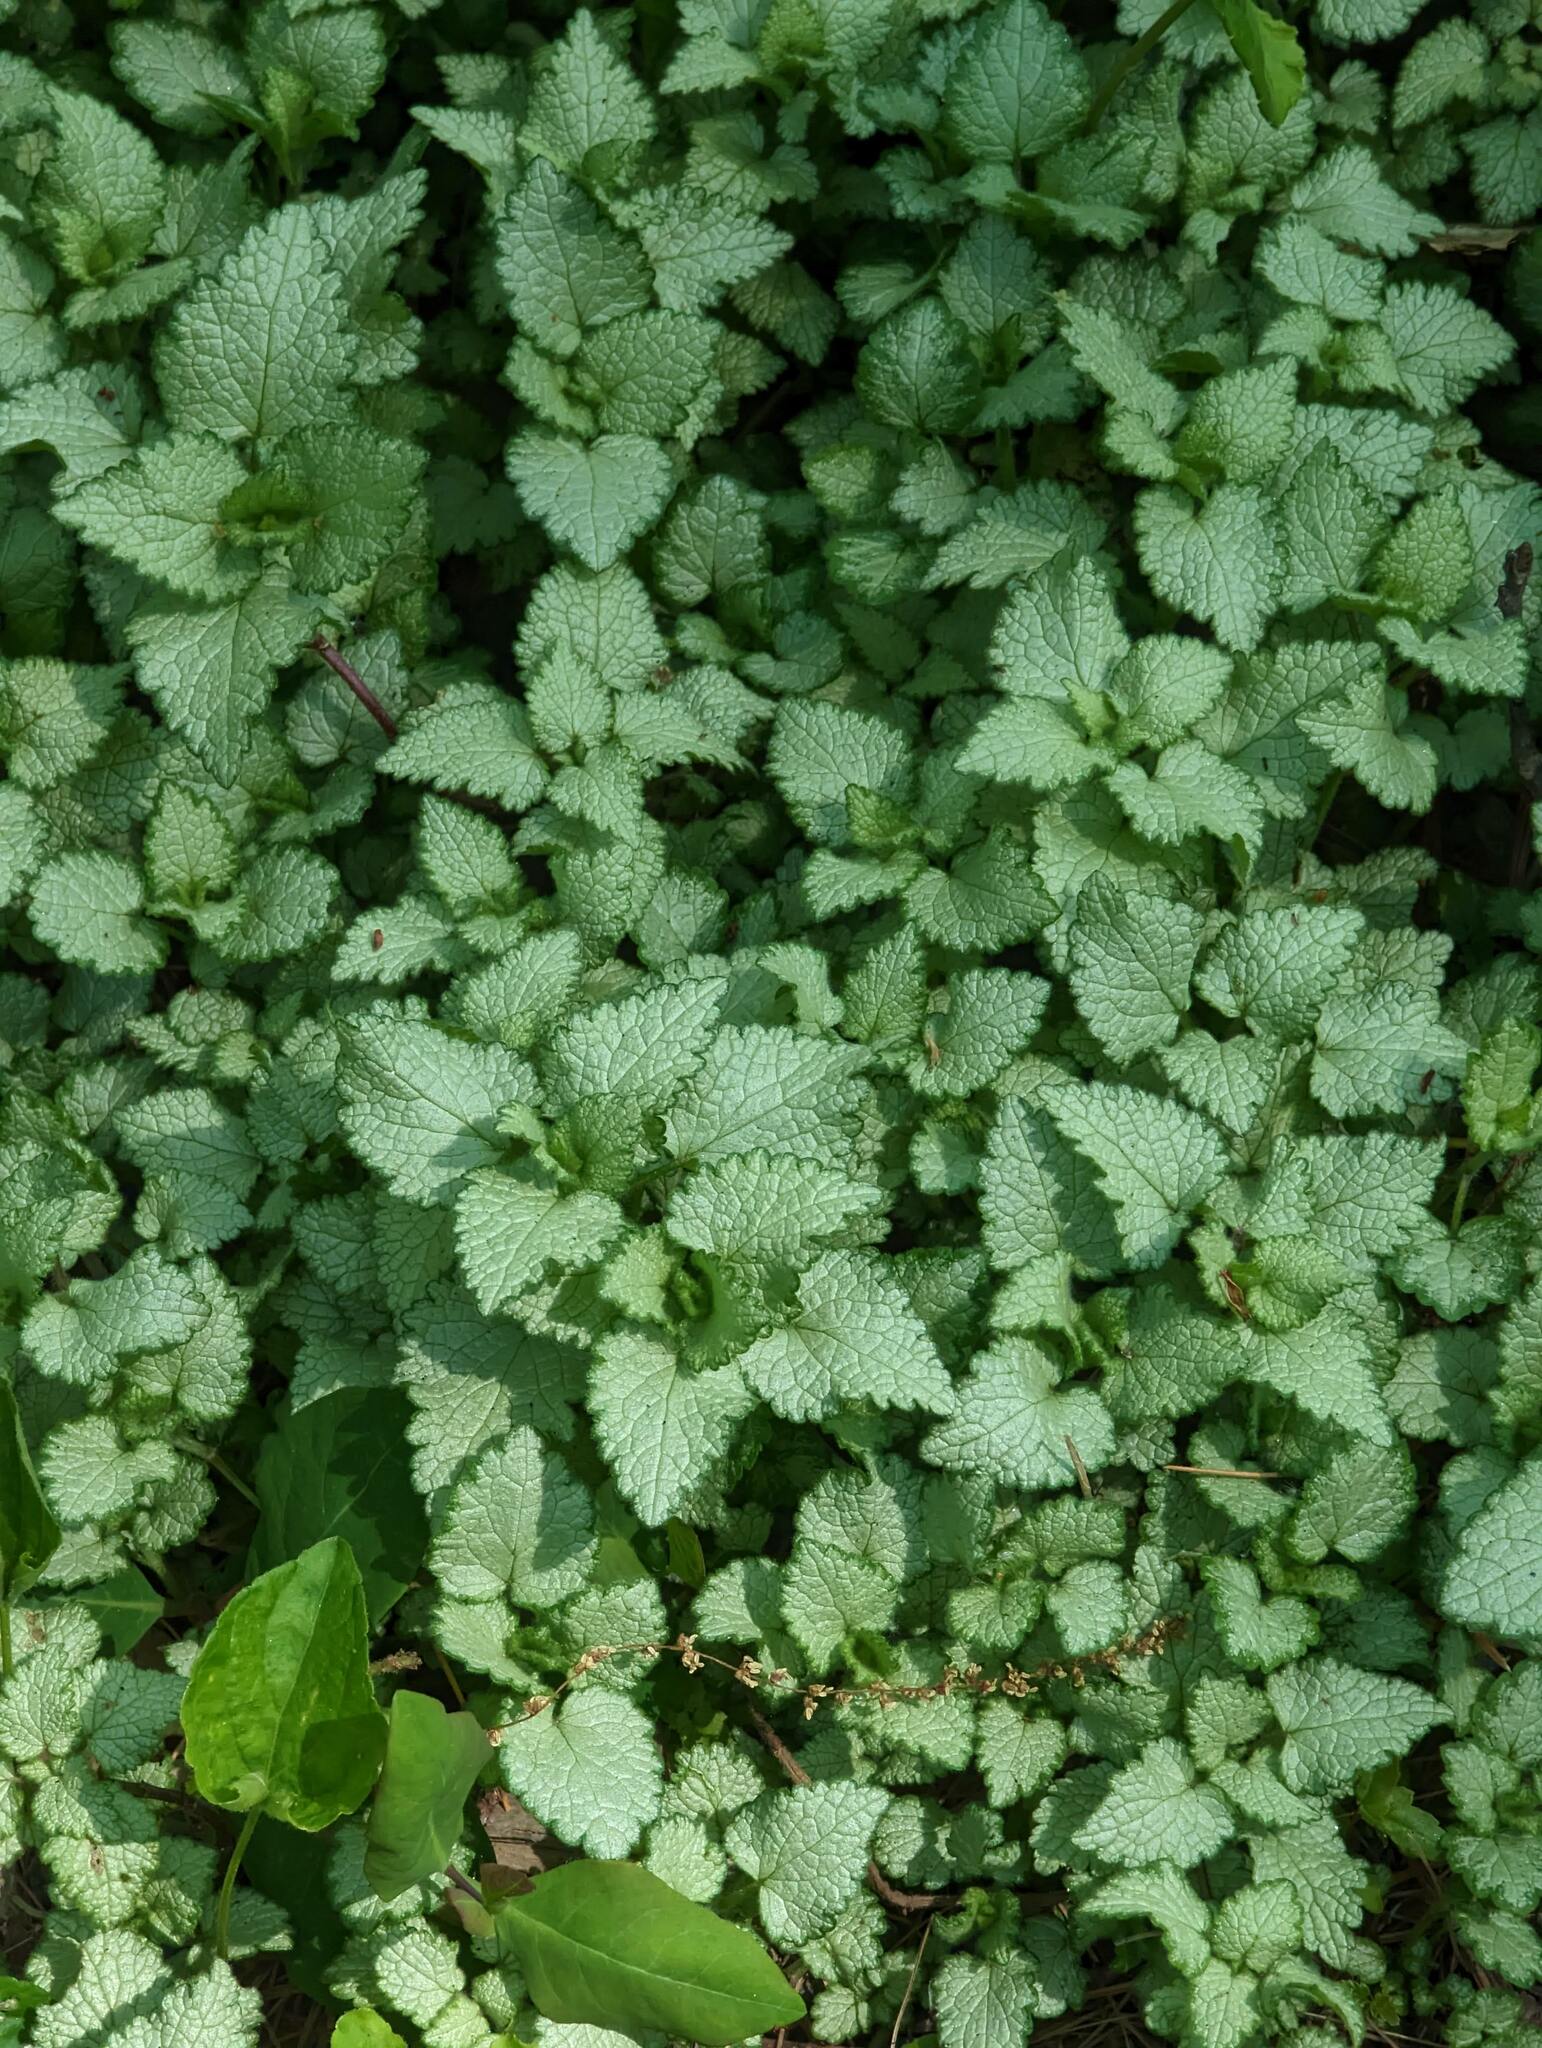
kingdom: Plantae
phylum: Tracheophyta
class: Magnoliopsida
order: Lamiales
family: Lamiaceae
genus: Lamium
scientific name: Lamium maculatum
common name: Spotted dead-nettle
